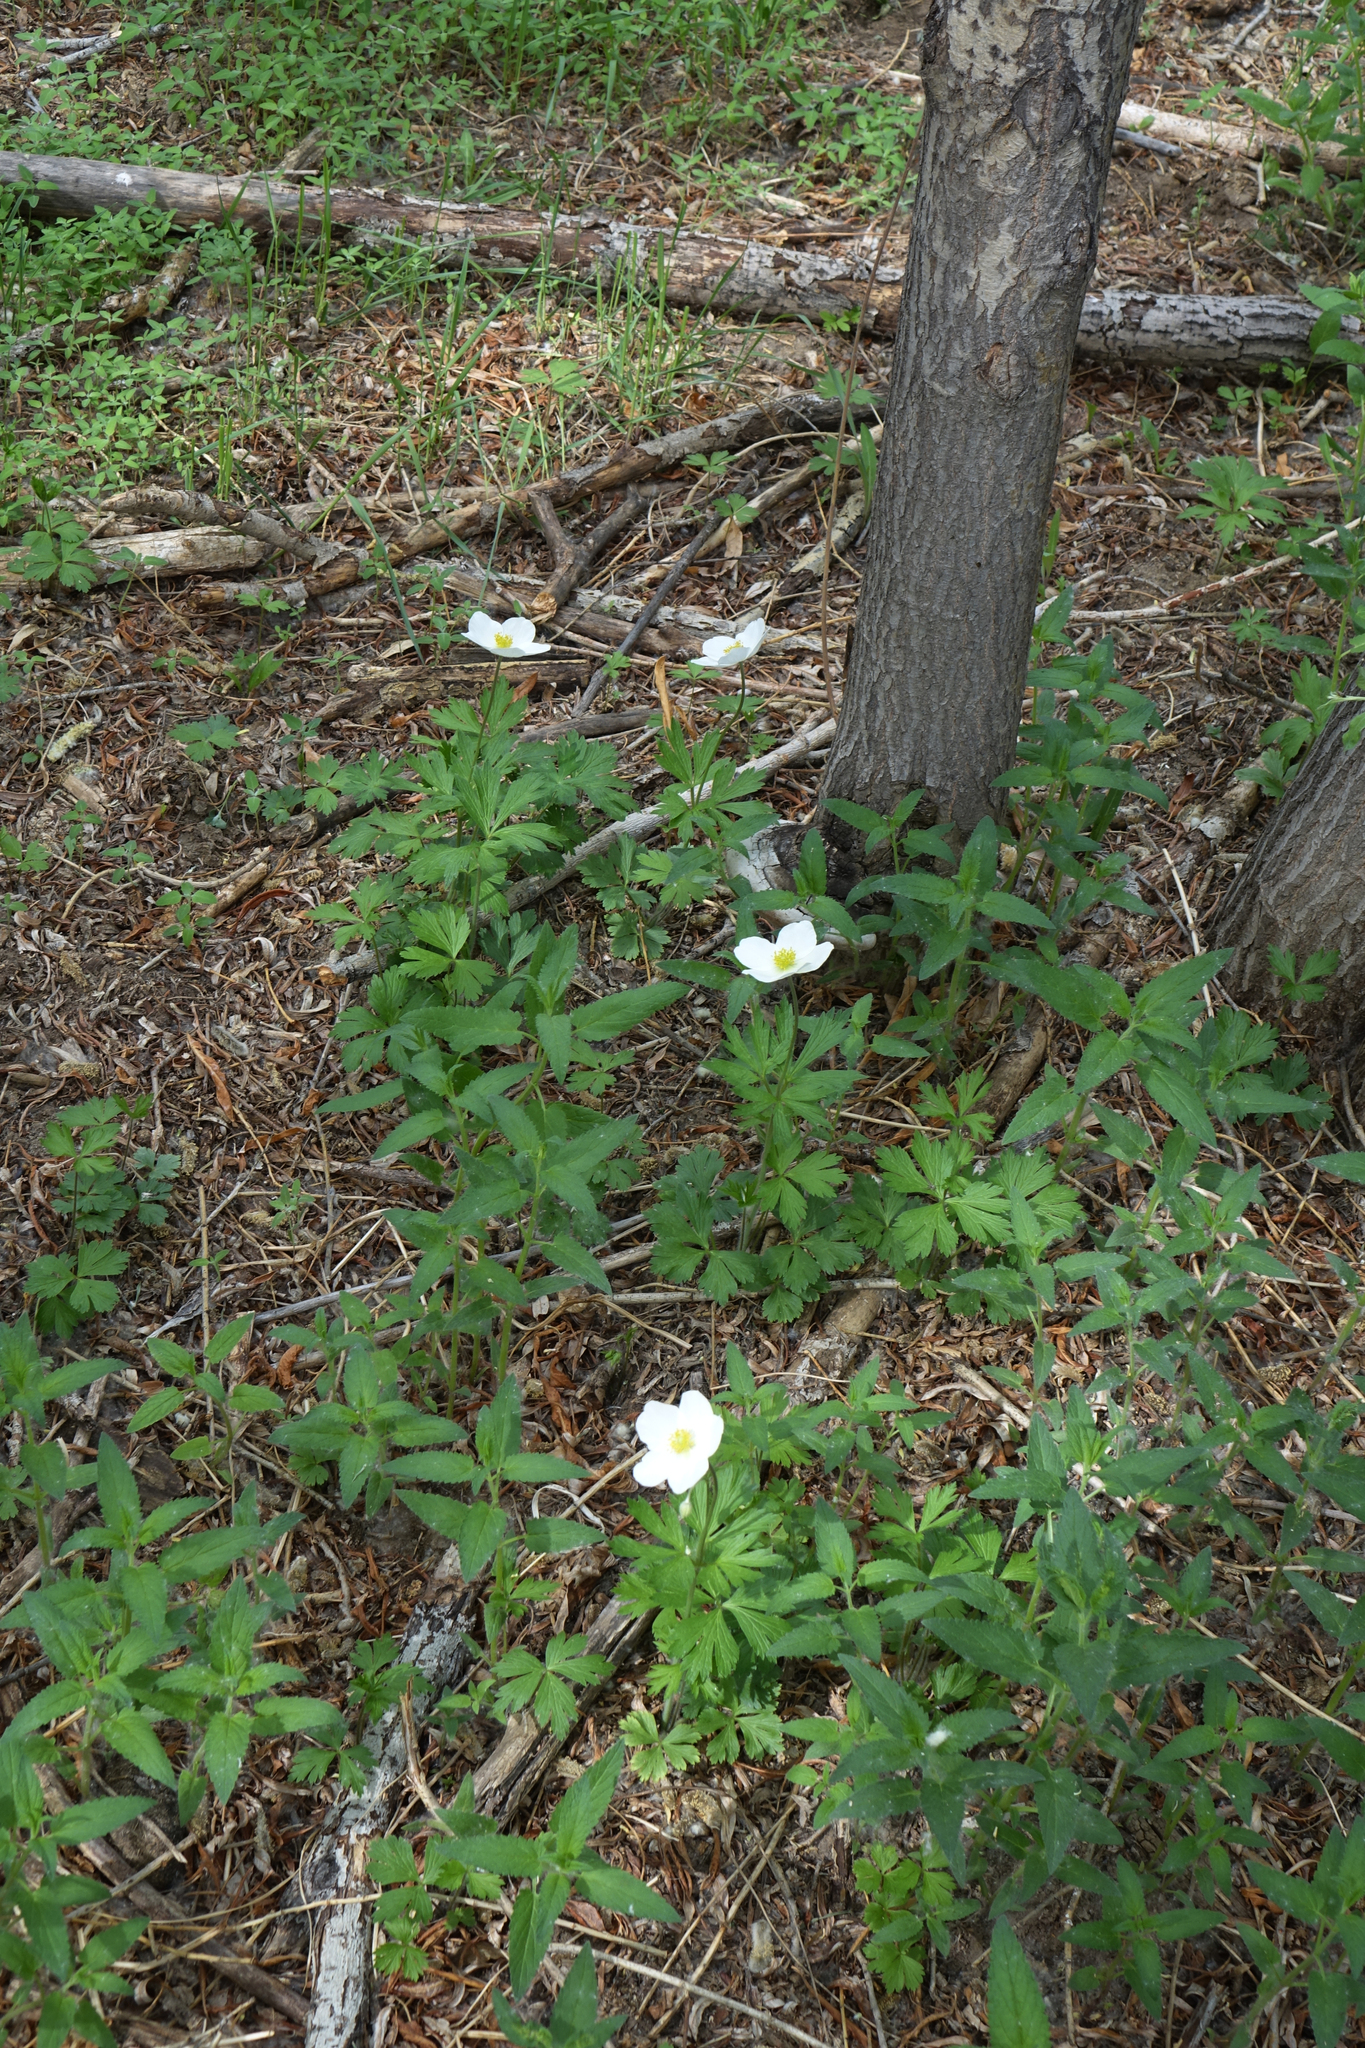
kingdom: Plantae
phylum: Tracheophyta
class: Magnoliopsida
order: Ranunculales
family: Ranunculaceae
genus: Anemone
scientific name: Anemone sylvestris
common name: Snowdrop anemone
